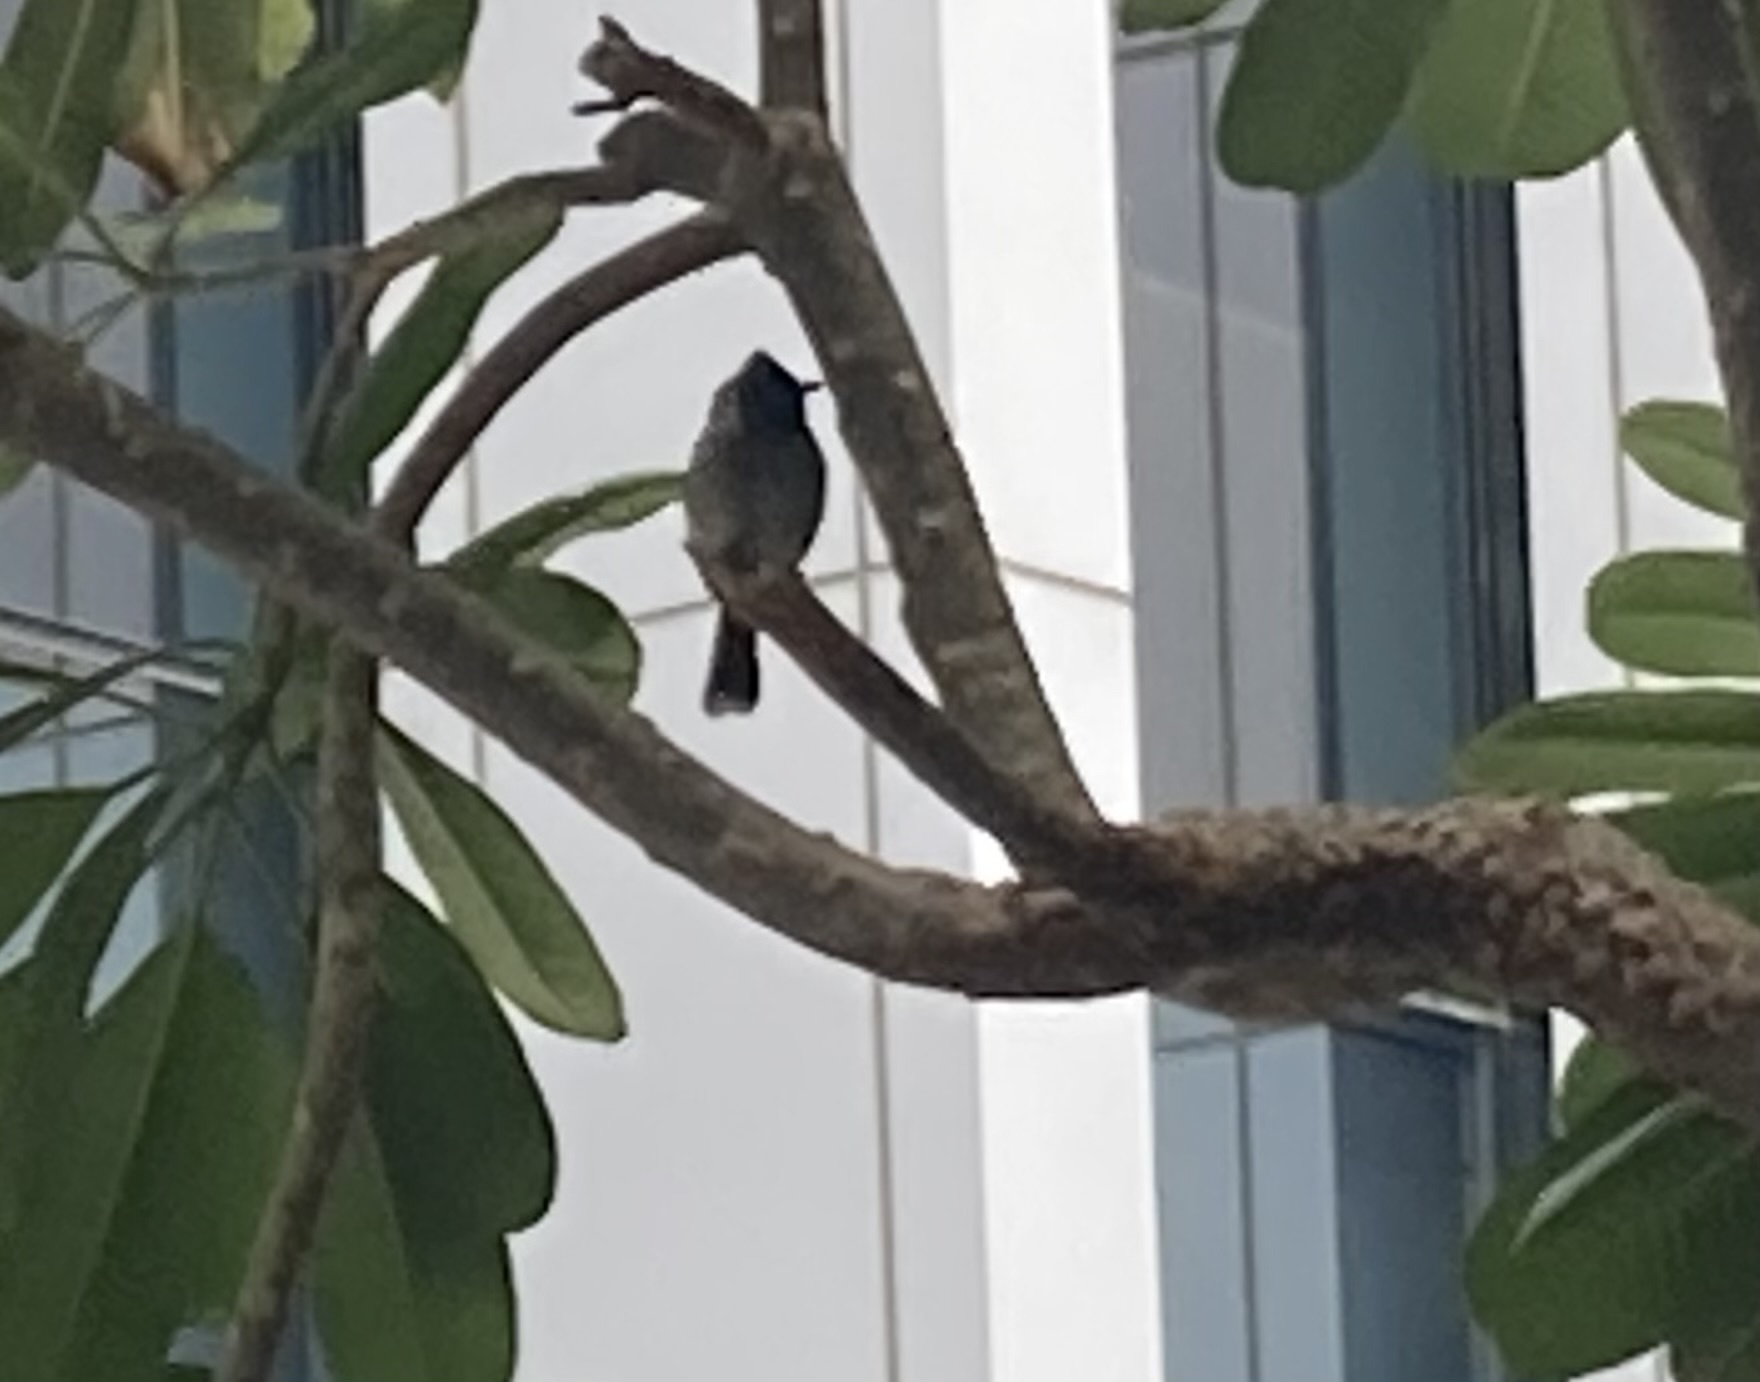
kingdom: Animalia
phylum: Chordata
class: Aves
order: Passeriformes
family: Pycnonotidae
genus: Pycnonotus
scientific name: Pycnonotus cafer
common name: Red-vented bulbul
